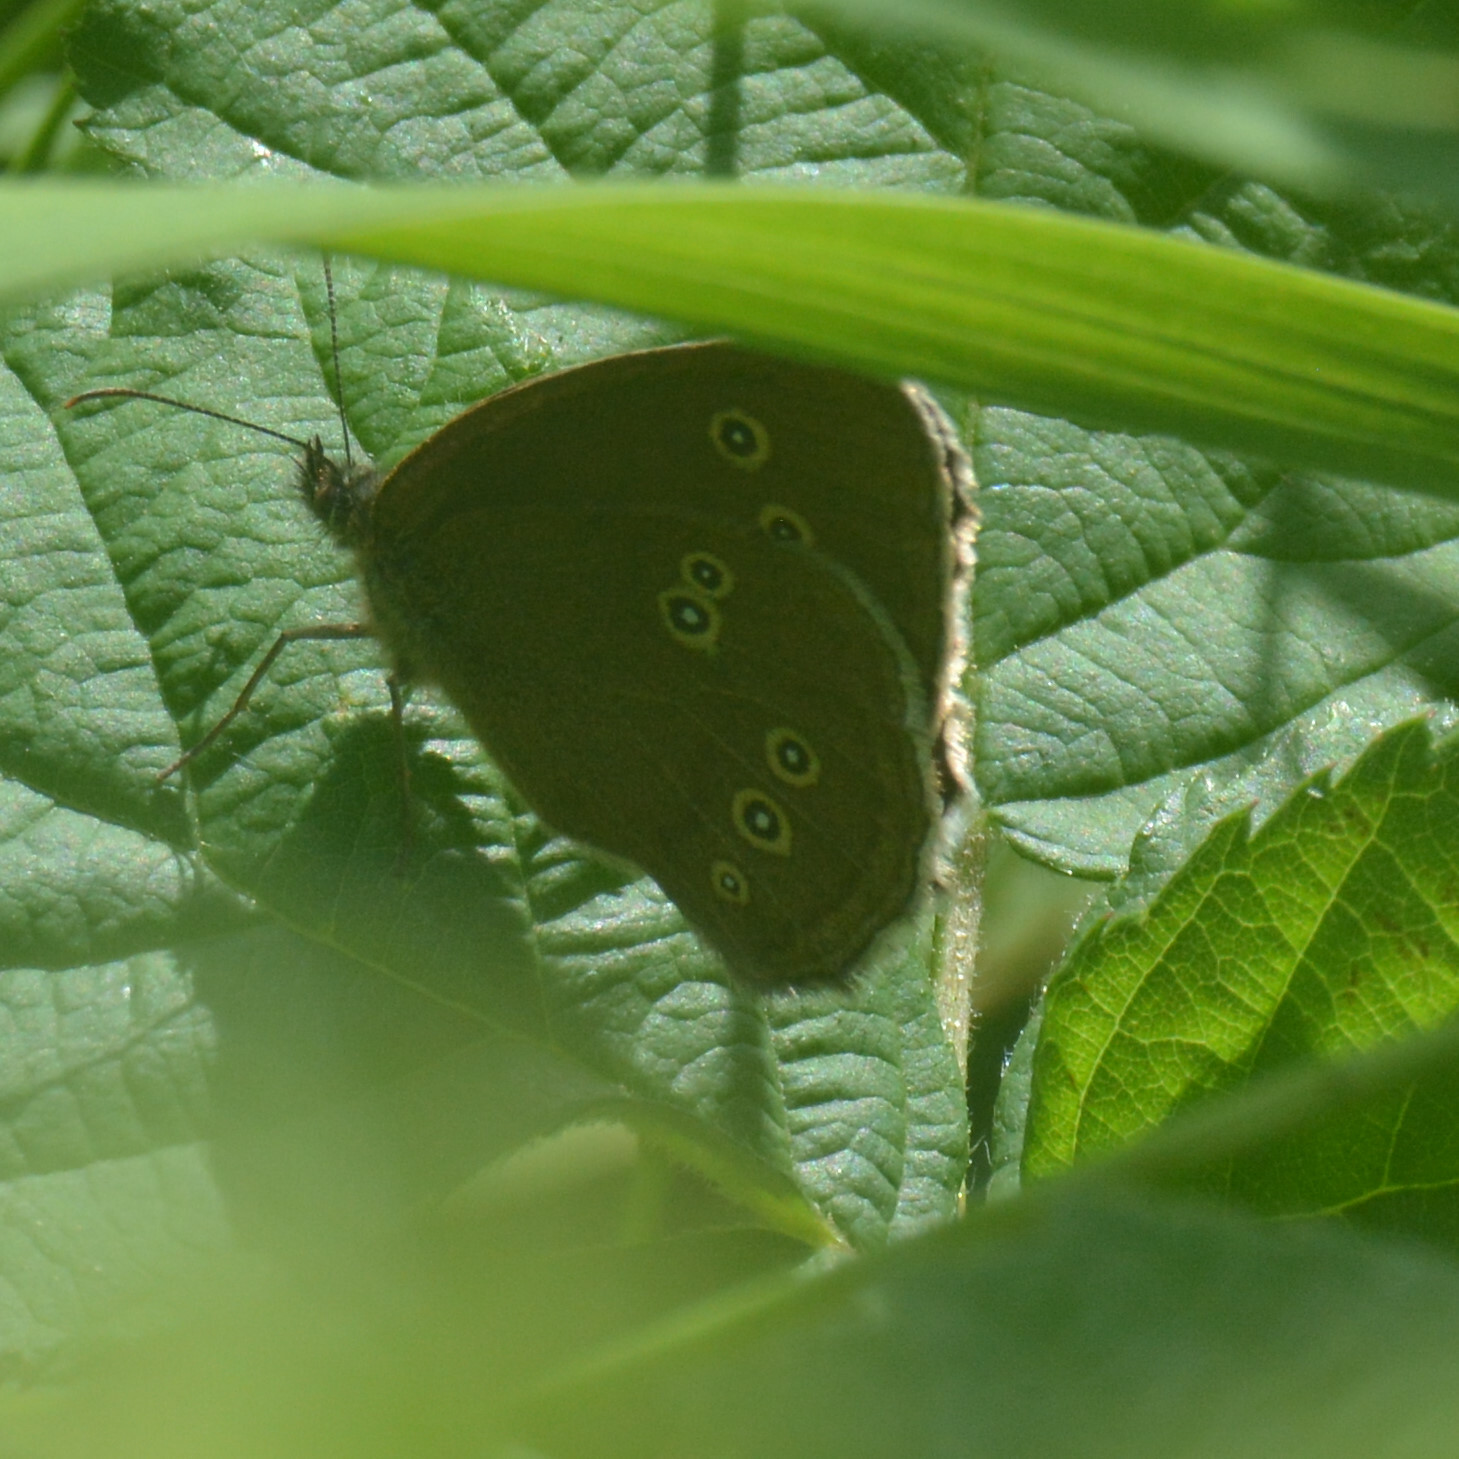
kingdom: Animalia
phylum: Arthropoda
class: Insecta
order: Lepidoptera
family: Nymphalidae
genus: Aphantopus
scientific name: Aphantopus hyperantus
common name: Ringlet
